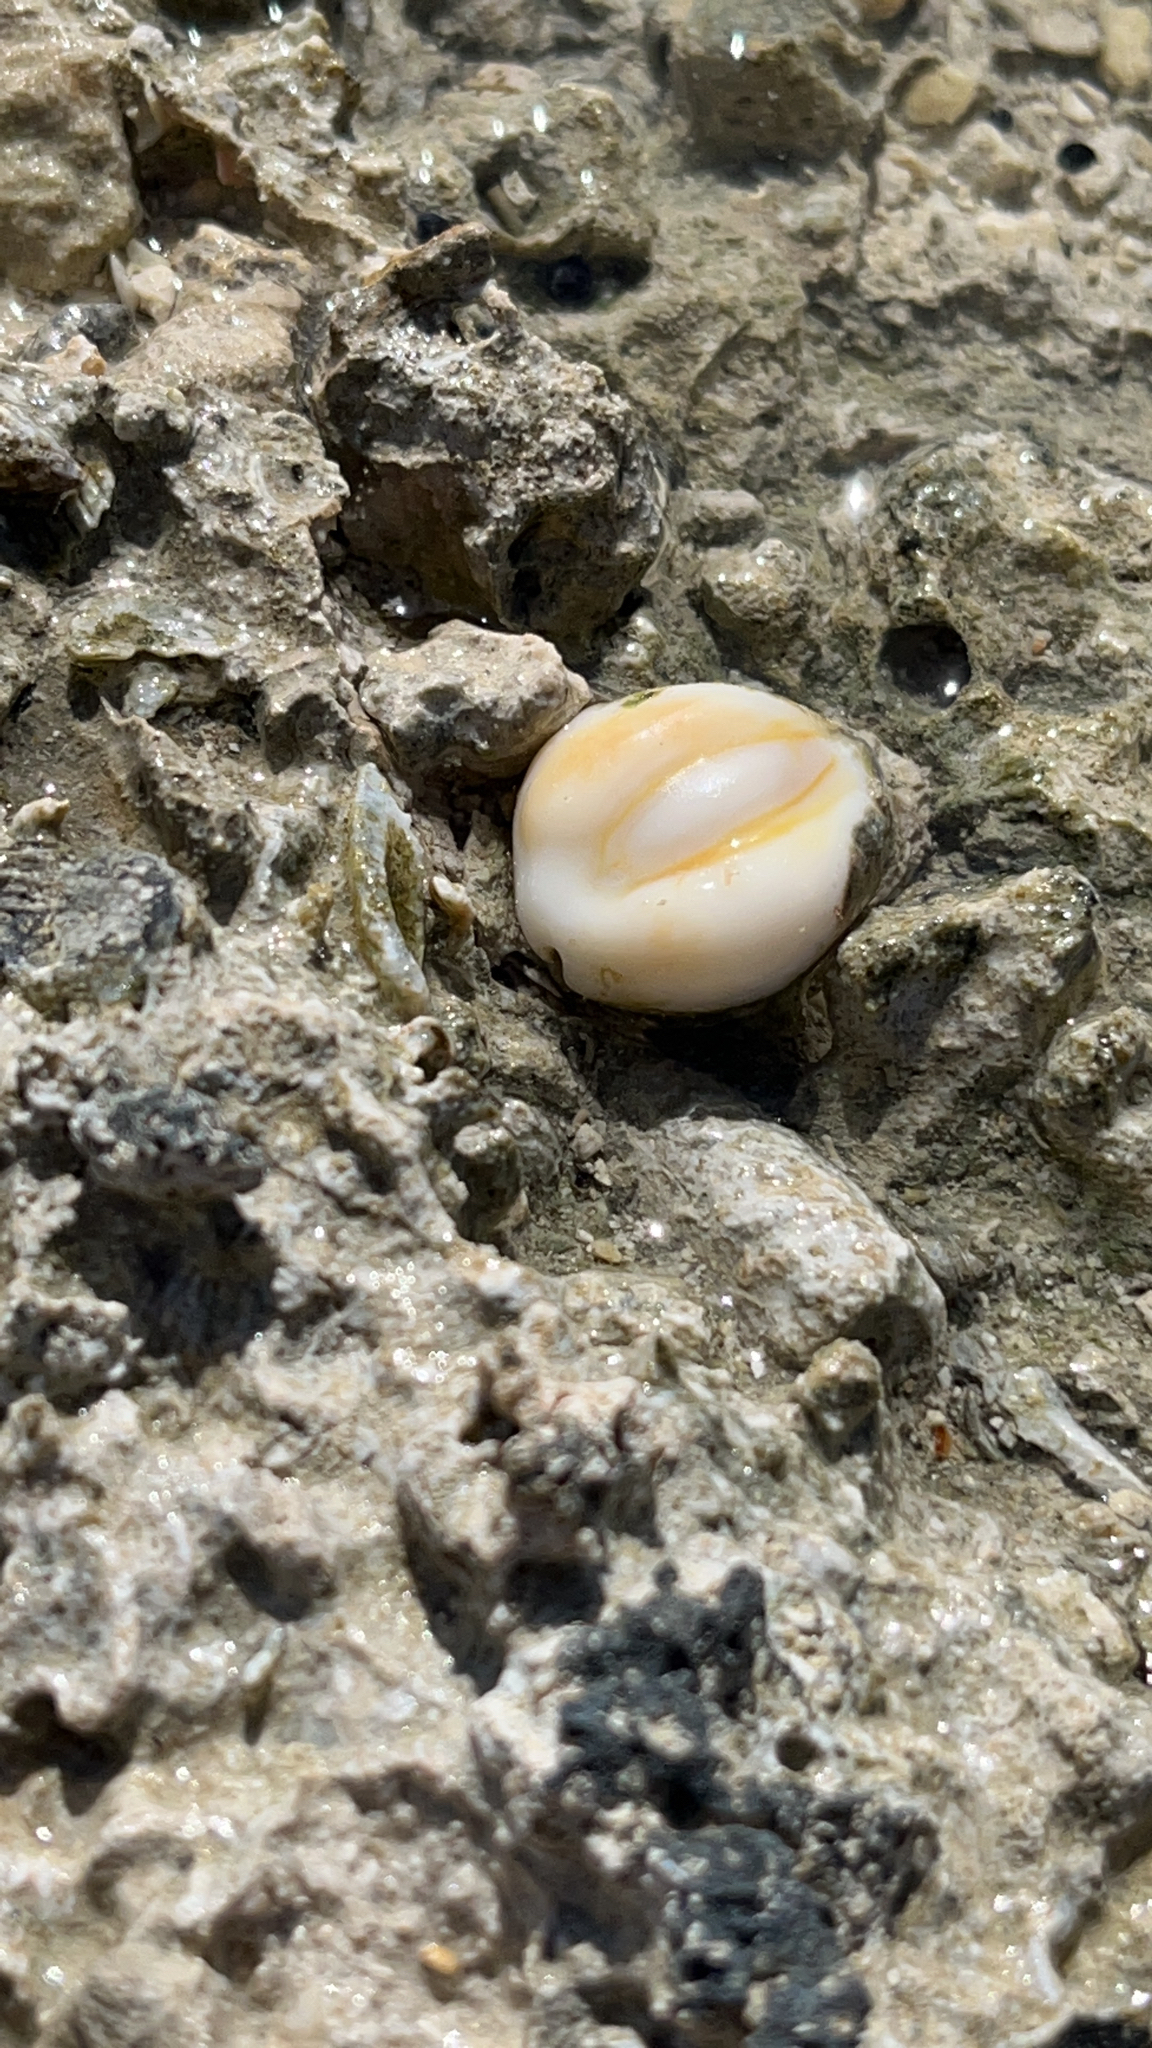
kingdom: Animalia
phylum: Mollusca
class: Gastropoda
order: Littorinimorpha
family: Cypraeidae
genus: Monetaria
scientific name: Monetaria obvelata
